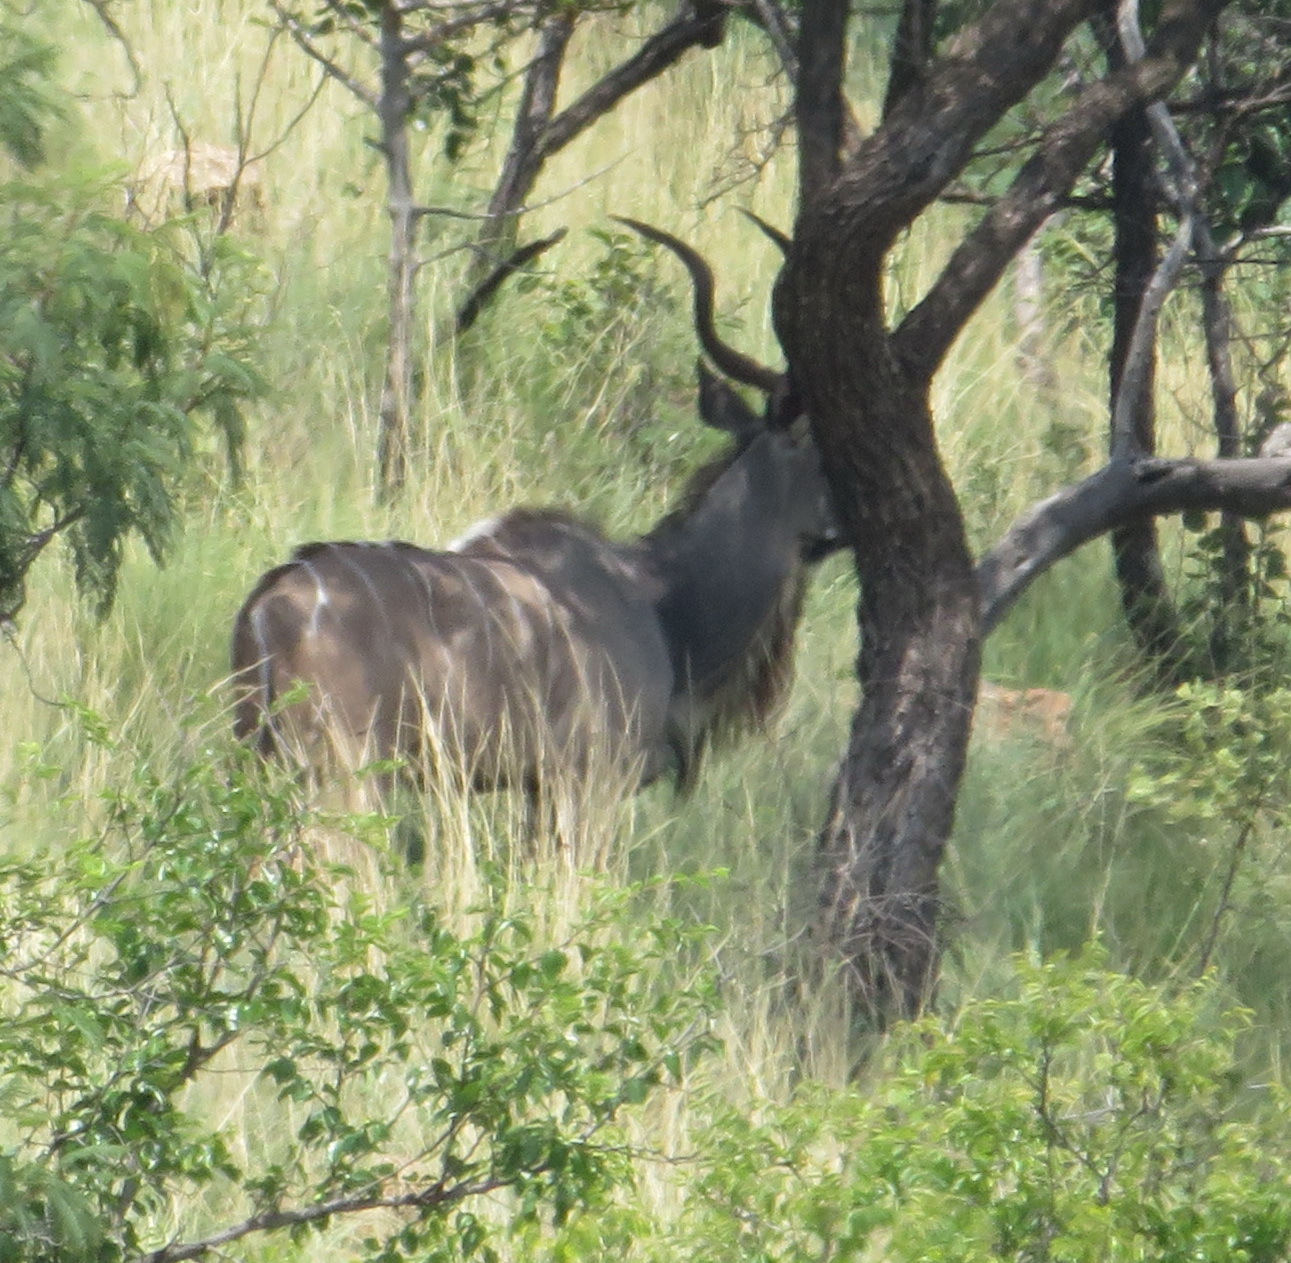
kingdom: Animalia
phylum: Chordata
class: Mammalia
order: Artiodactyla
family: Bovidae
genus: Tragelaphus
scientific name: Tragelaphus strepsiceros
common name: Greater kudu
